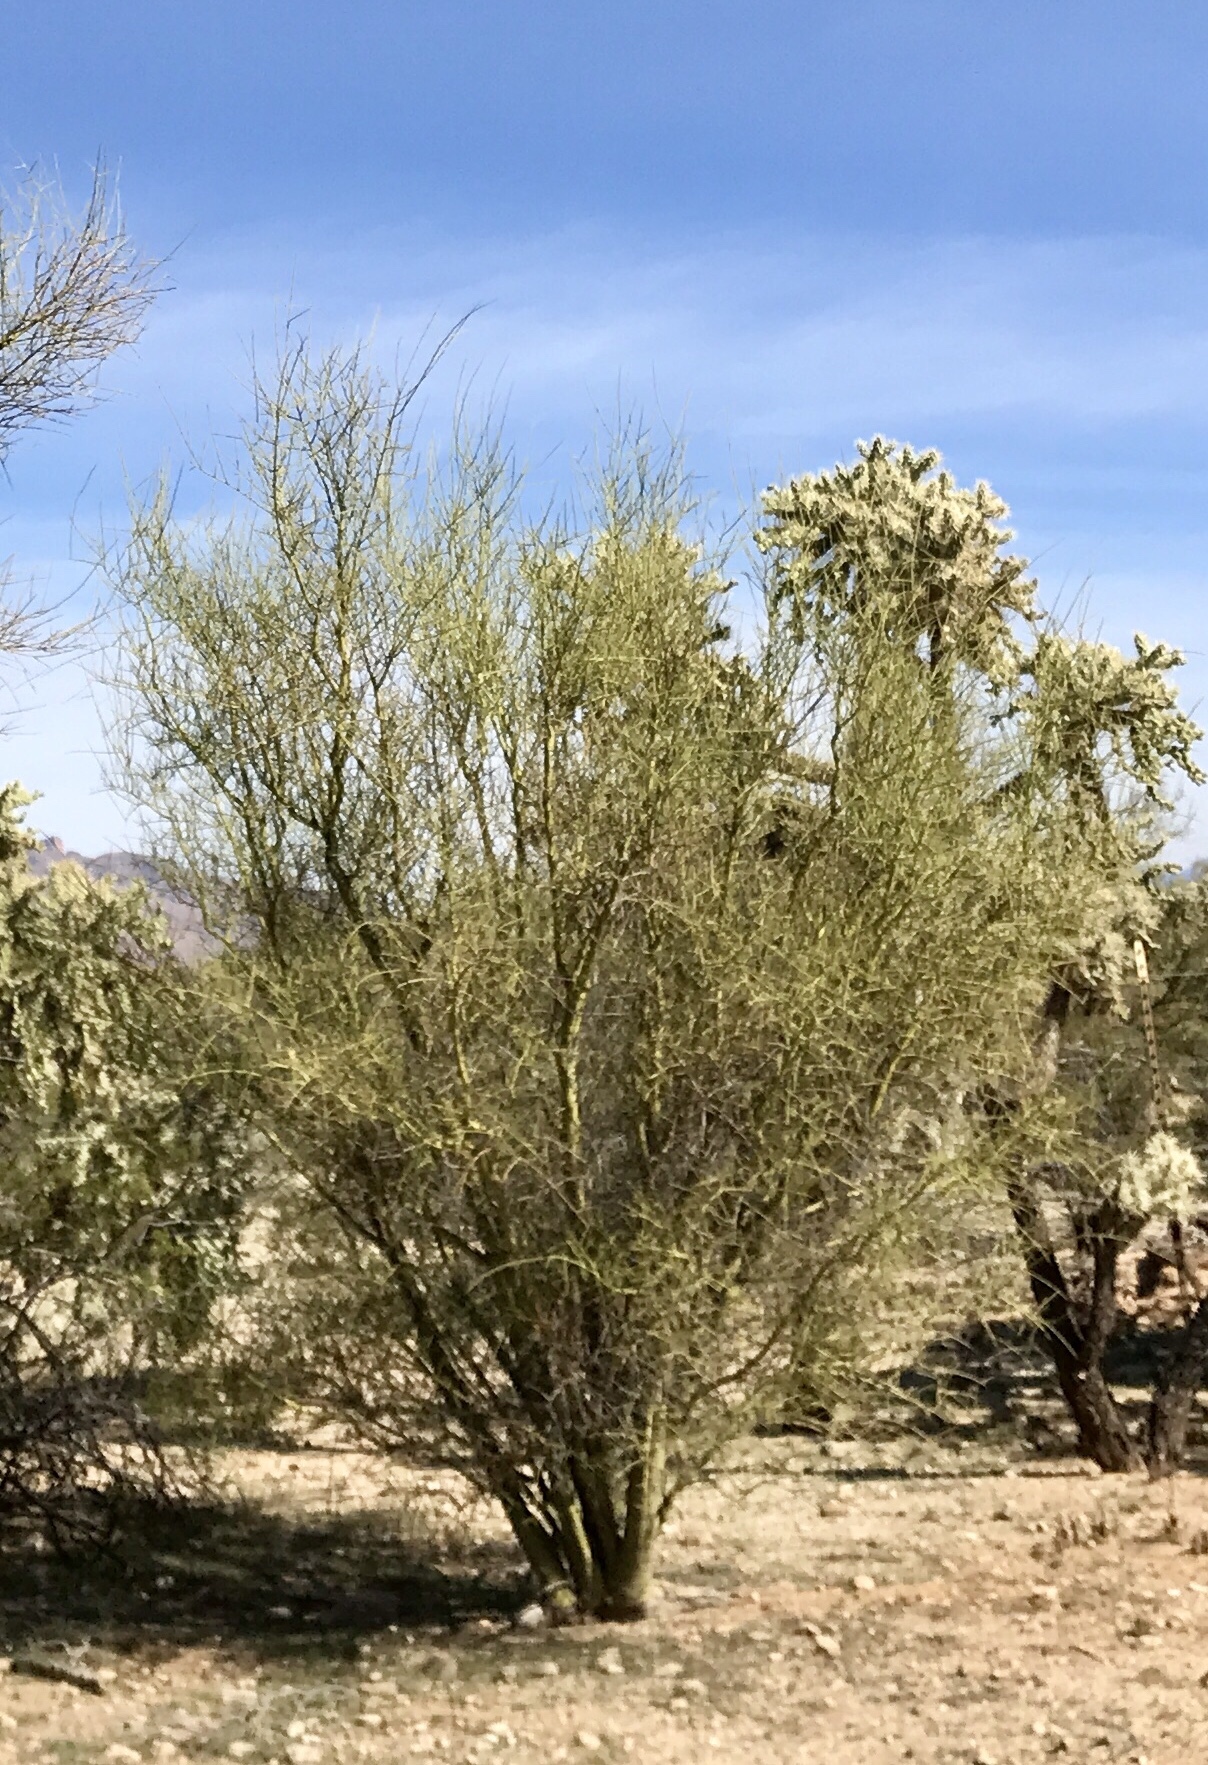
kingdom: Plantae
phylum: Tracheophyta
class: Magnoliopsida
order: Fabales
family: Fabaceae
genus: Parkinsonia
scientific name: Parkinsonia microphylla
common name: Yellow paloverde
